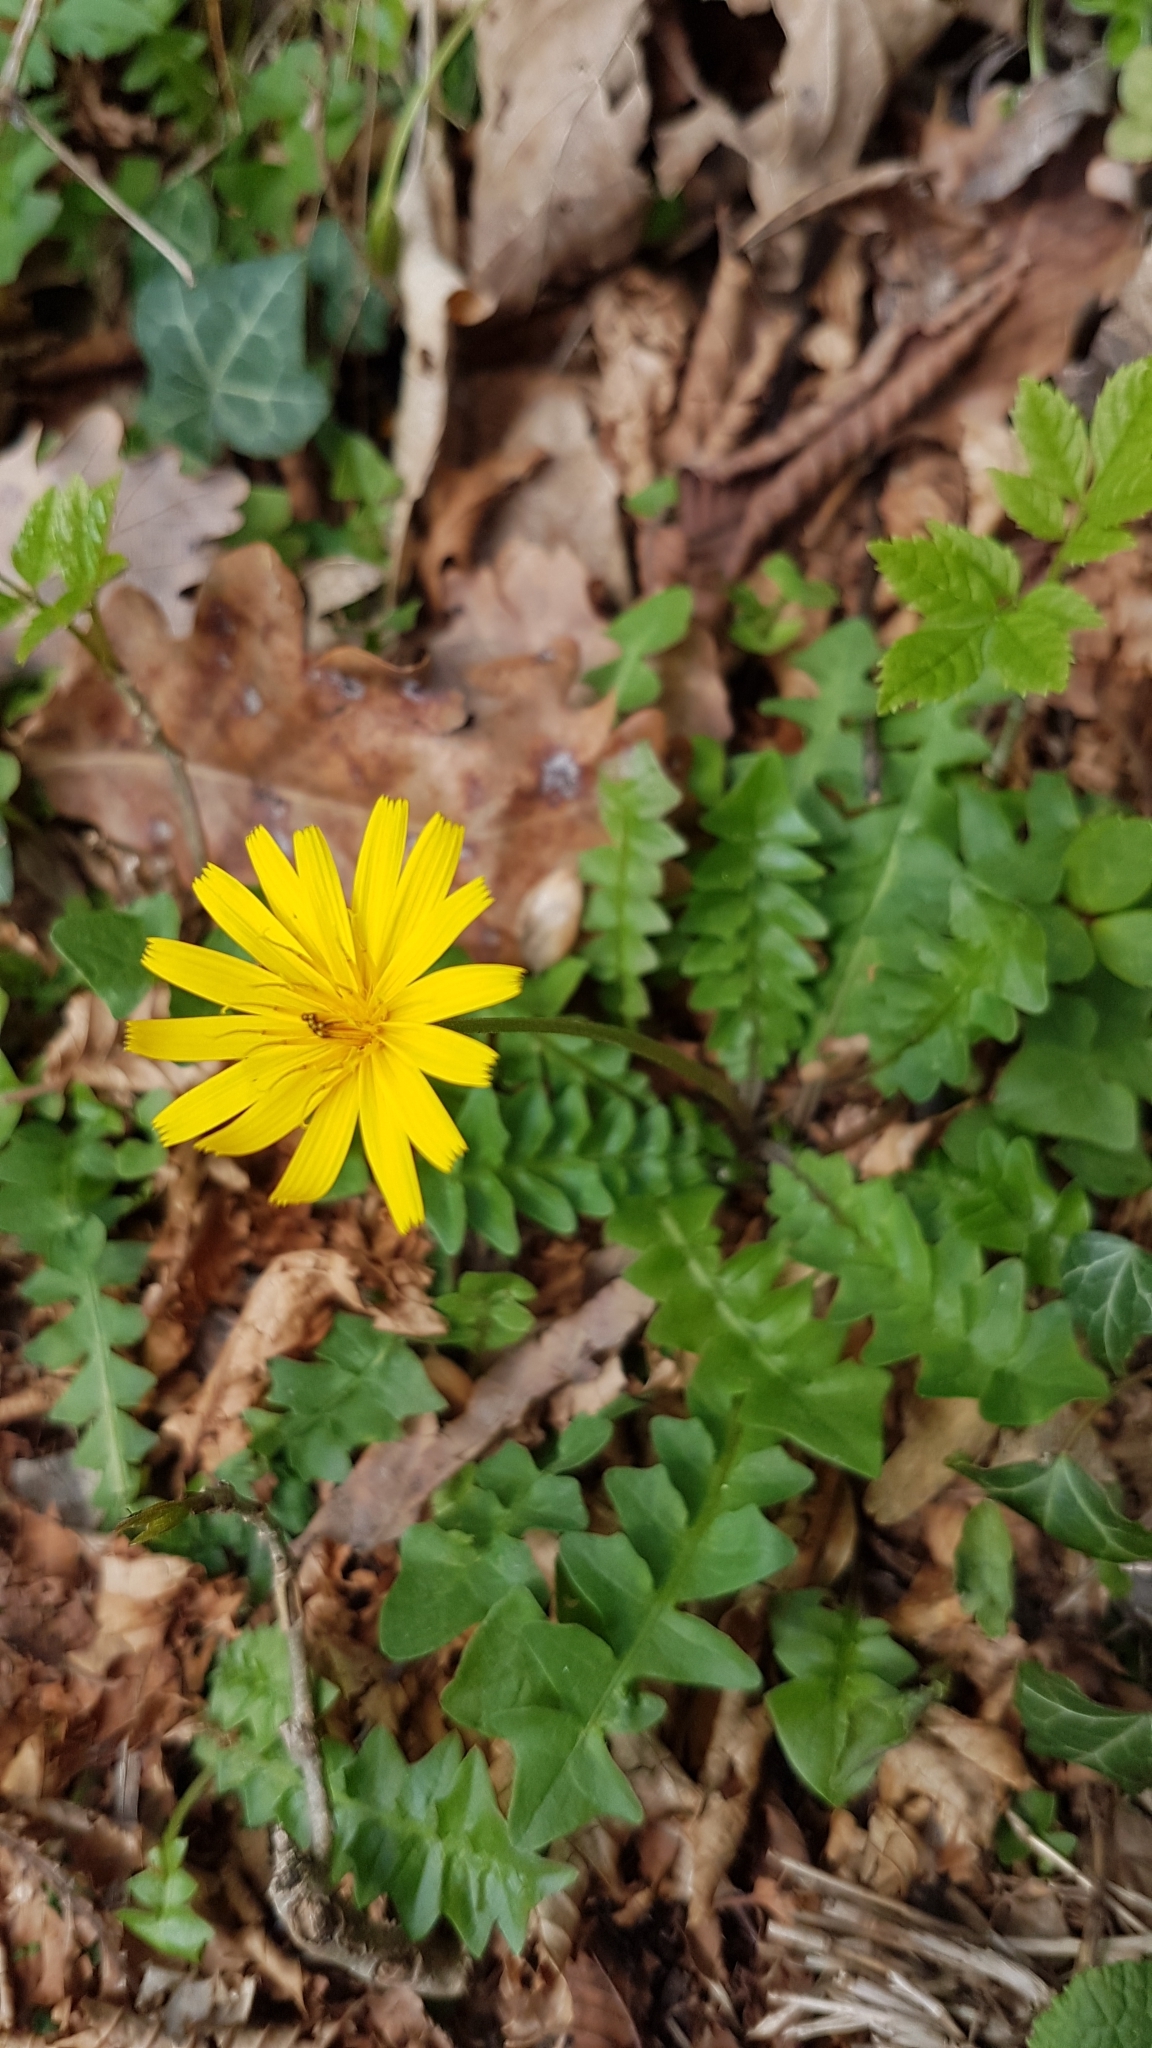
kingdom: Plantae
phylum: Tracheophyta
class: Magnoliopsida
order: Asterales
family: Asteraceae
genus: Aposeris
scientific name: Aposeris foetida
